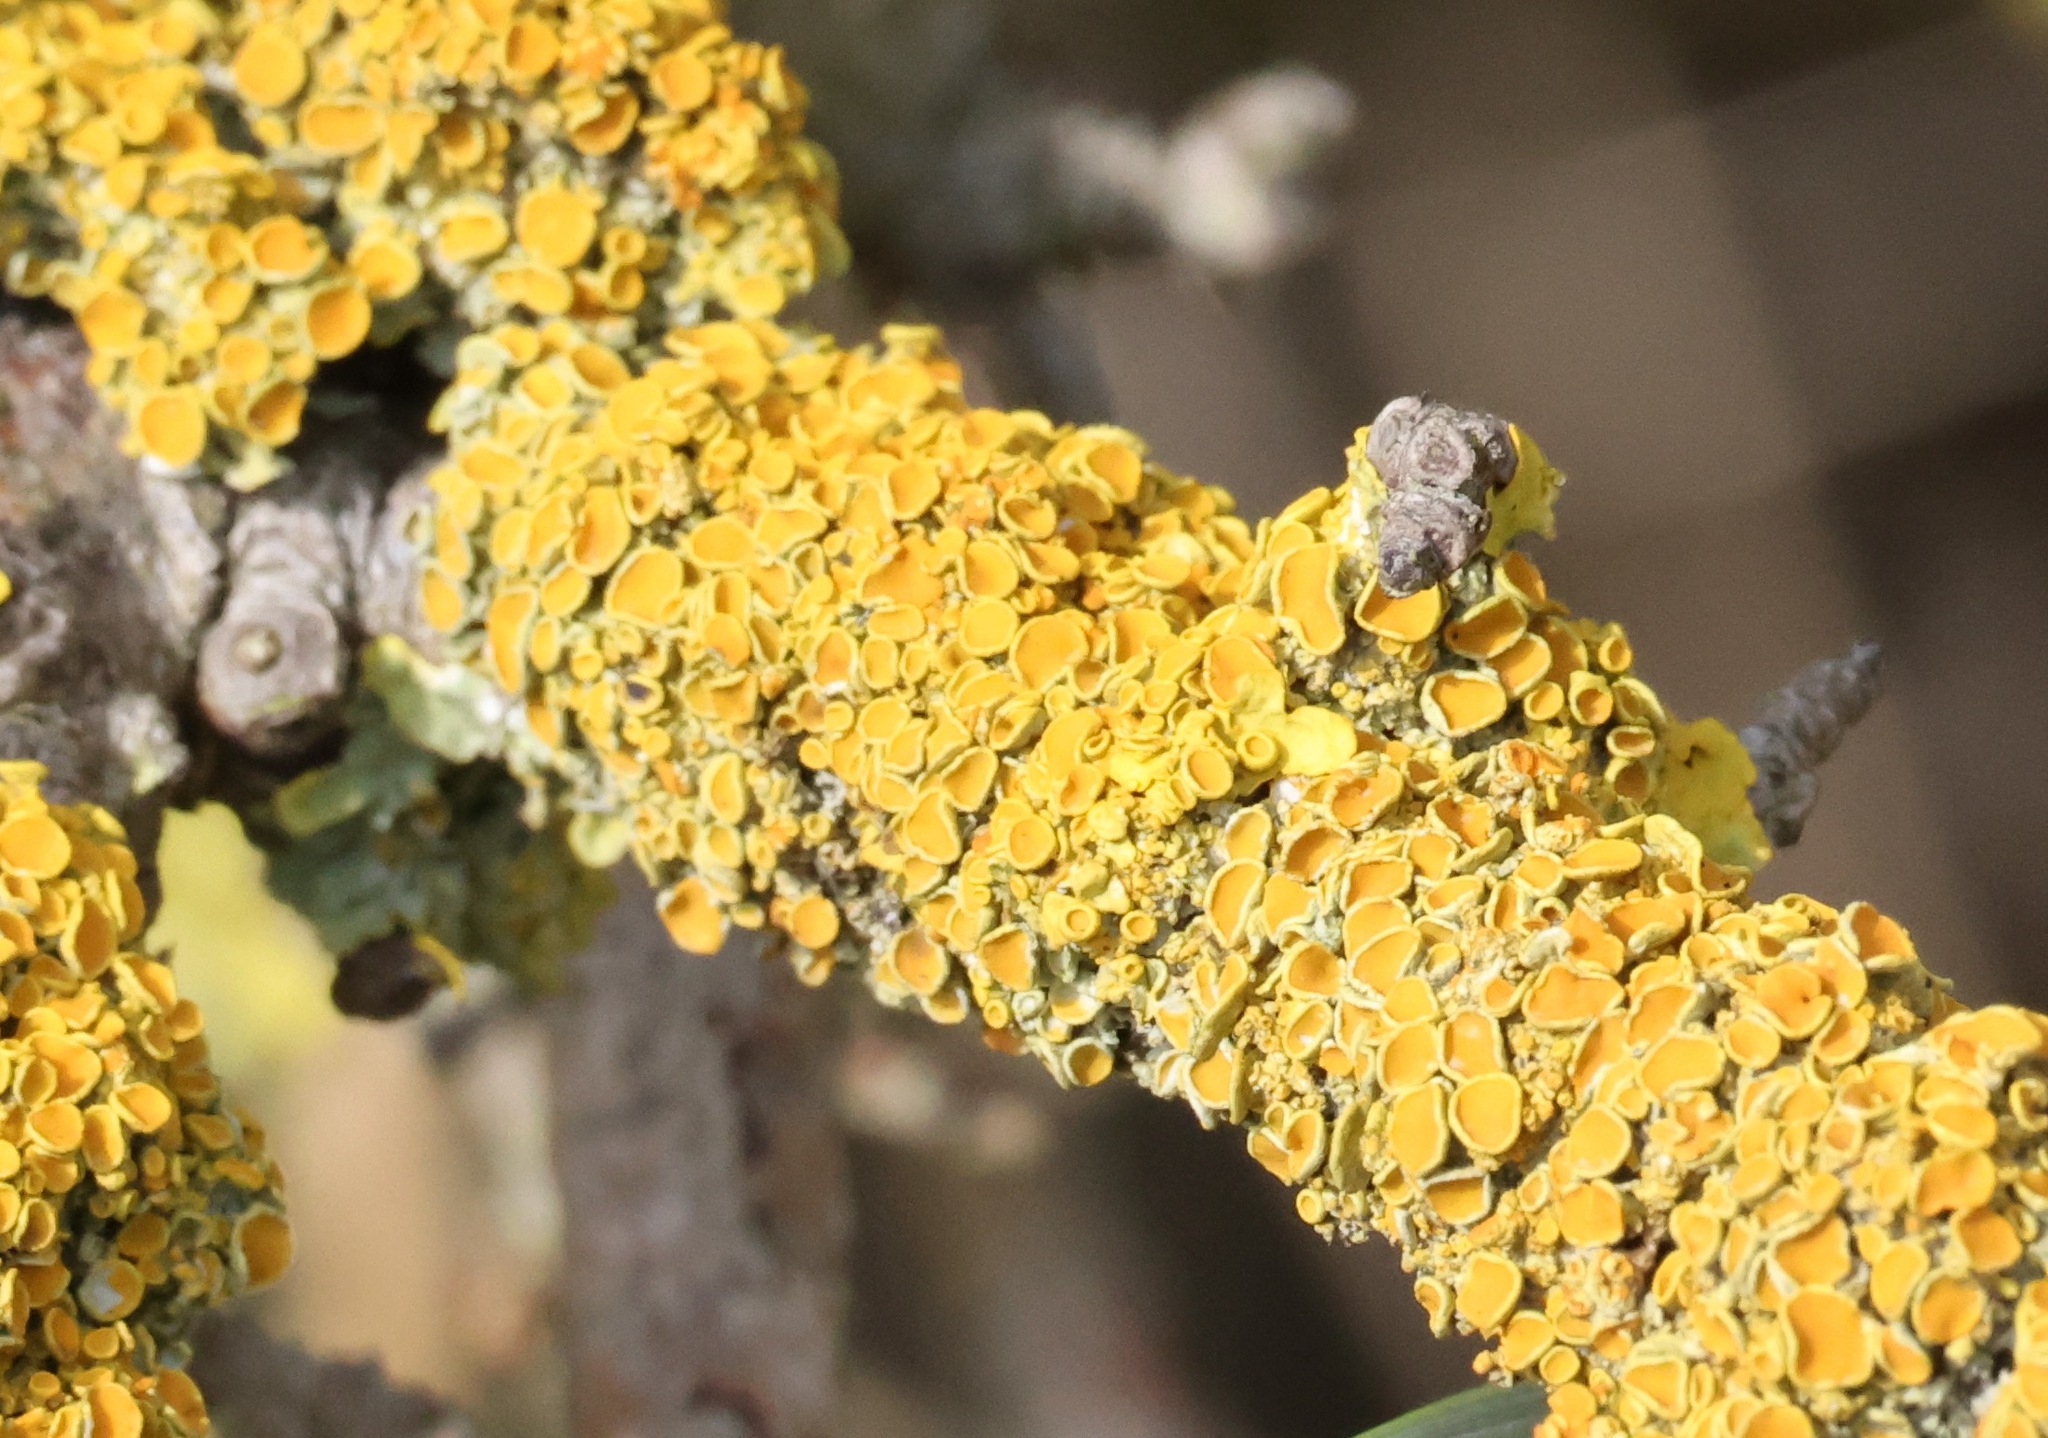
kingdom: Fungi
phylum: Ascomycota
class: Lecanoromycetes
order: Teloschistales
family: Teloschistaceae
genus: Xanthoria
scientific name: Xanthoria parietina
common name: Common orange lichen
